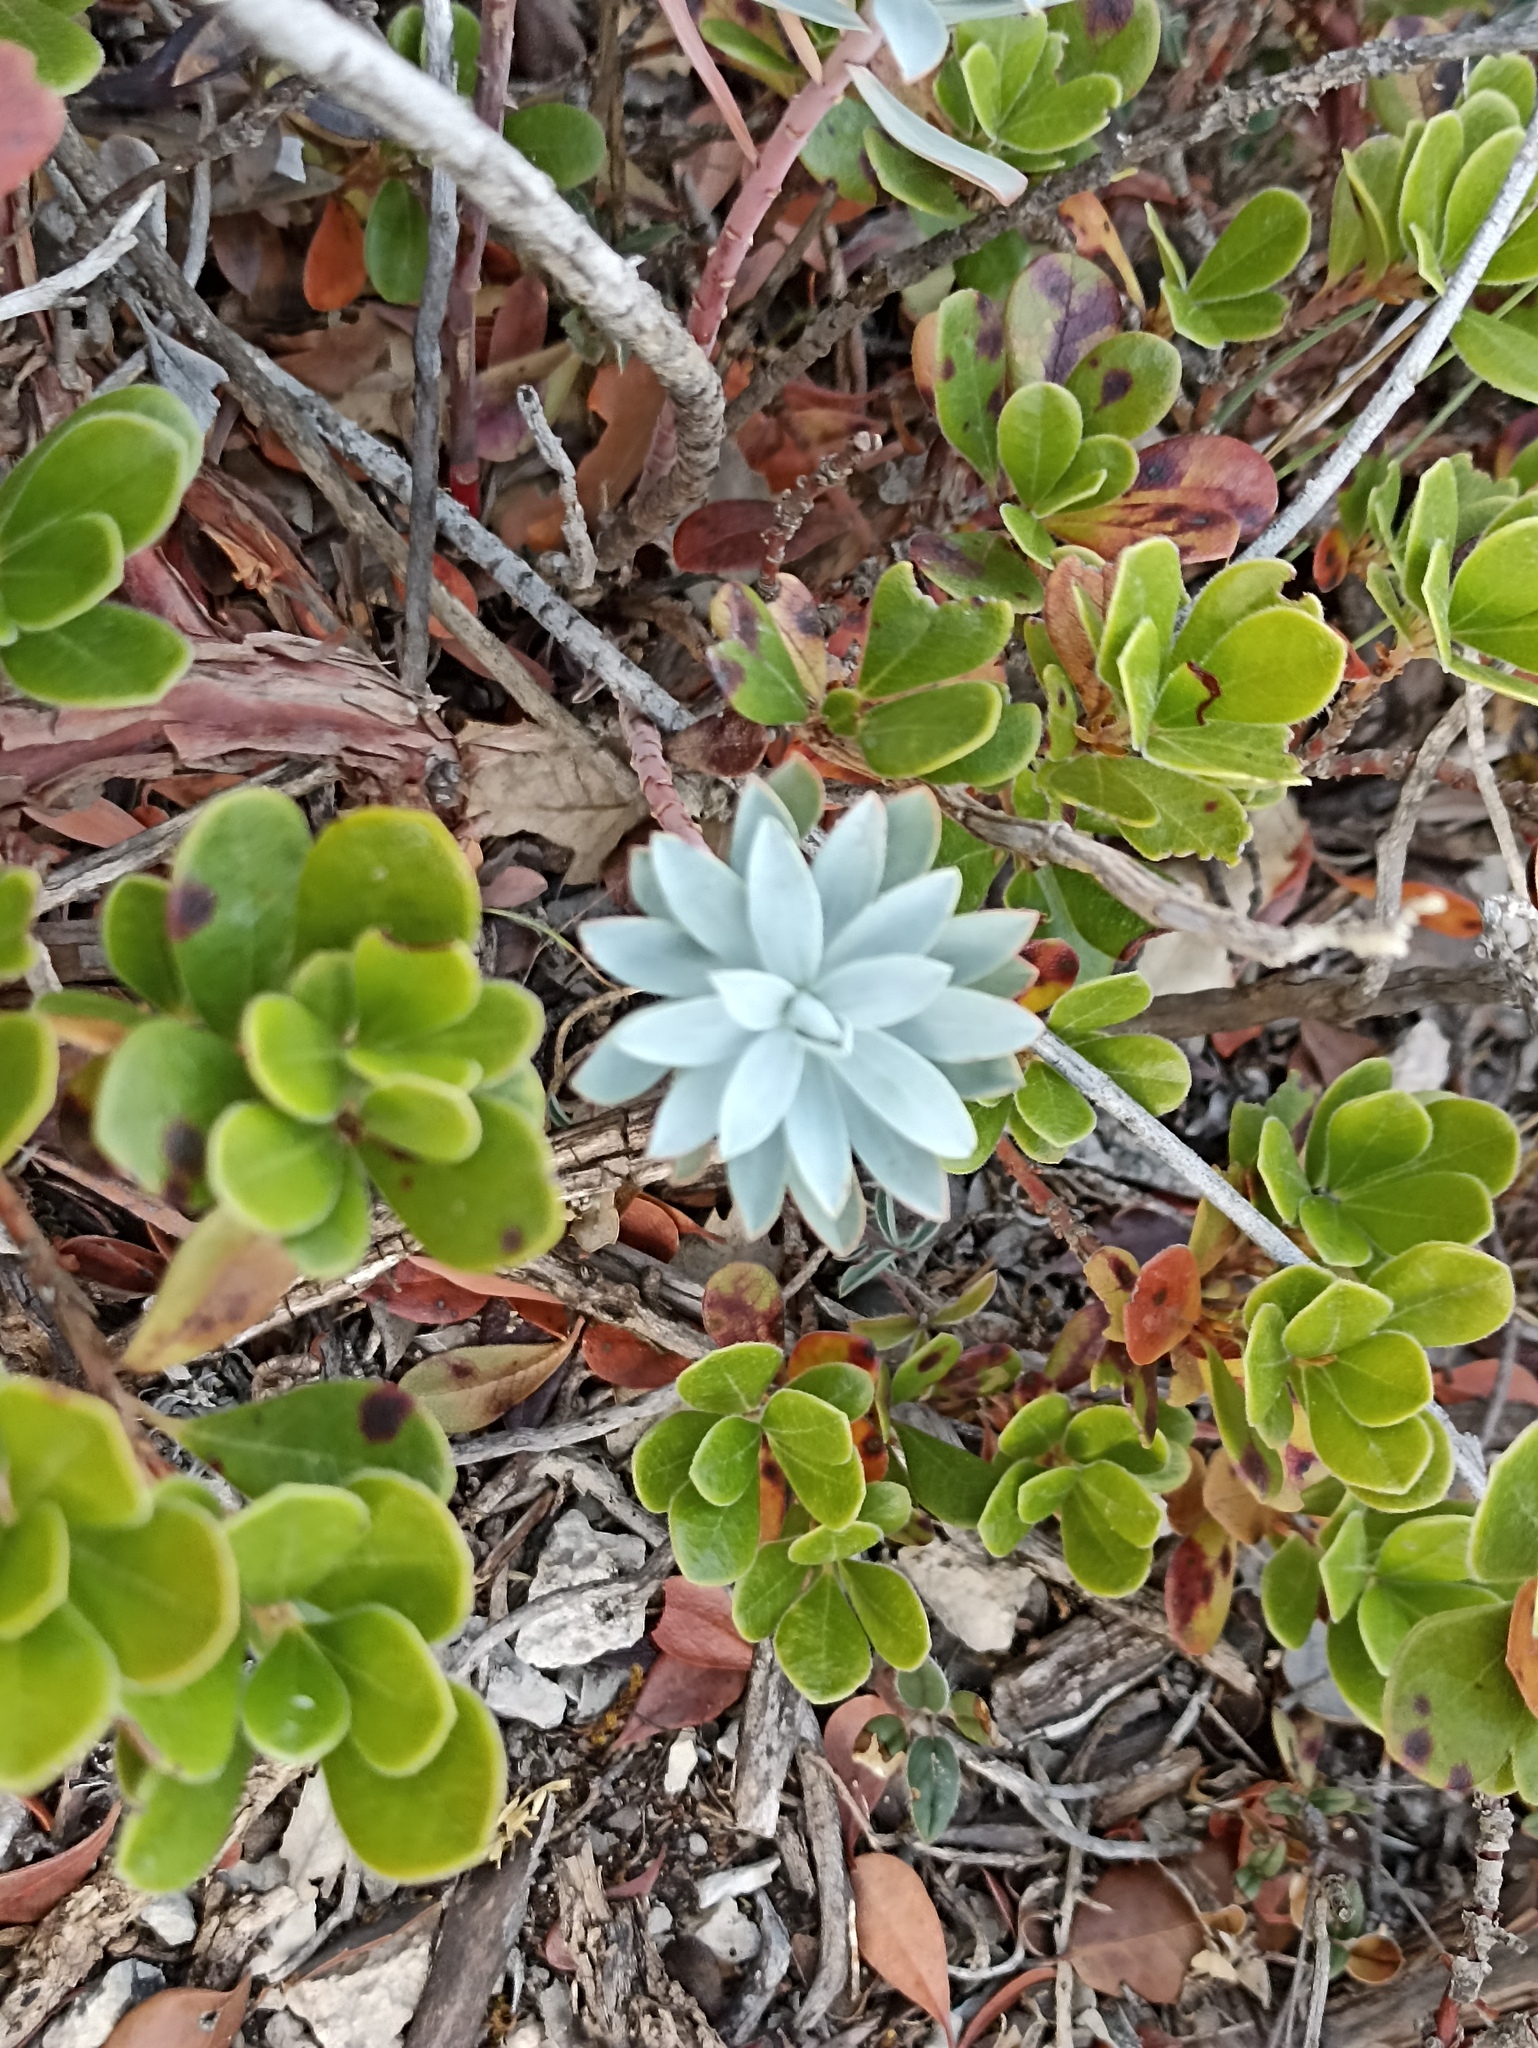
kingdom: Plantae
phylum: Tracheophyta
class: Magnoliopsida
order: Malpighiales
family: Euphorbiaceae
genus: Euphorbia
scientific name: Euphorbia nicaeensis
